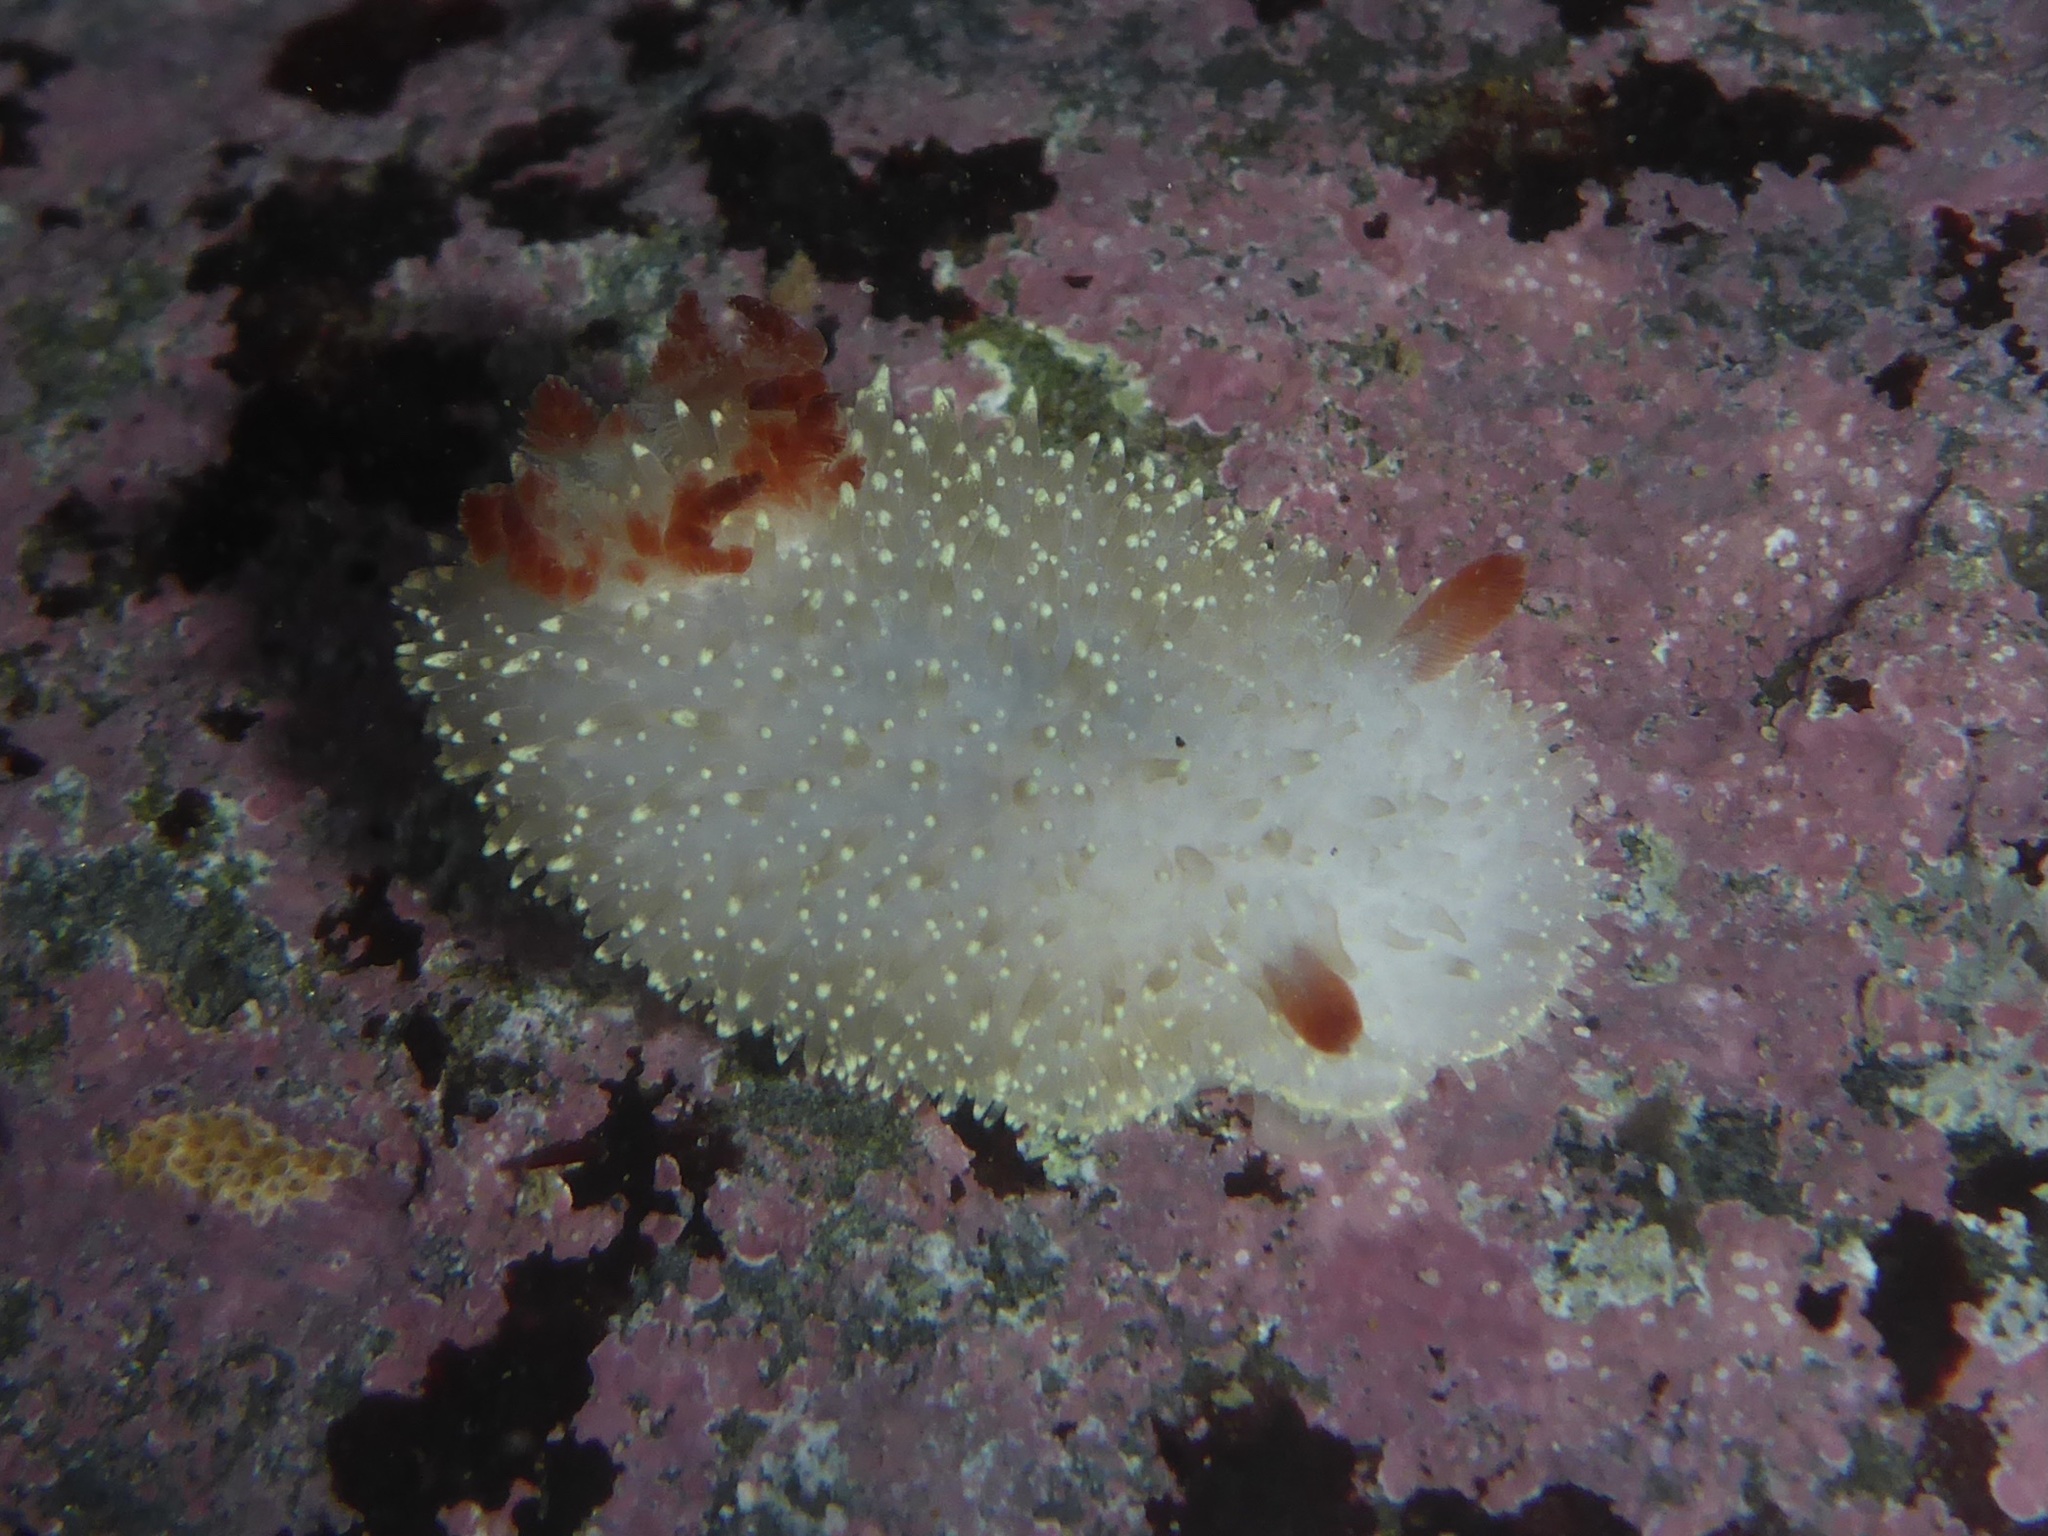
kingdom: Animalia
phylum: Mollusca
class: Gastropoda
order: Nudibranchia
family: Onchidorididae
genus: Acanthodoris
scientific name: Acanthodoris nanaimoensis
